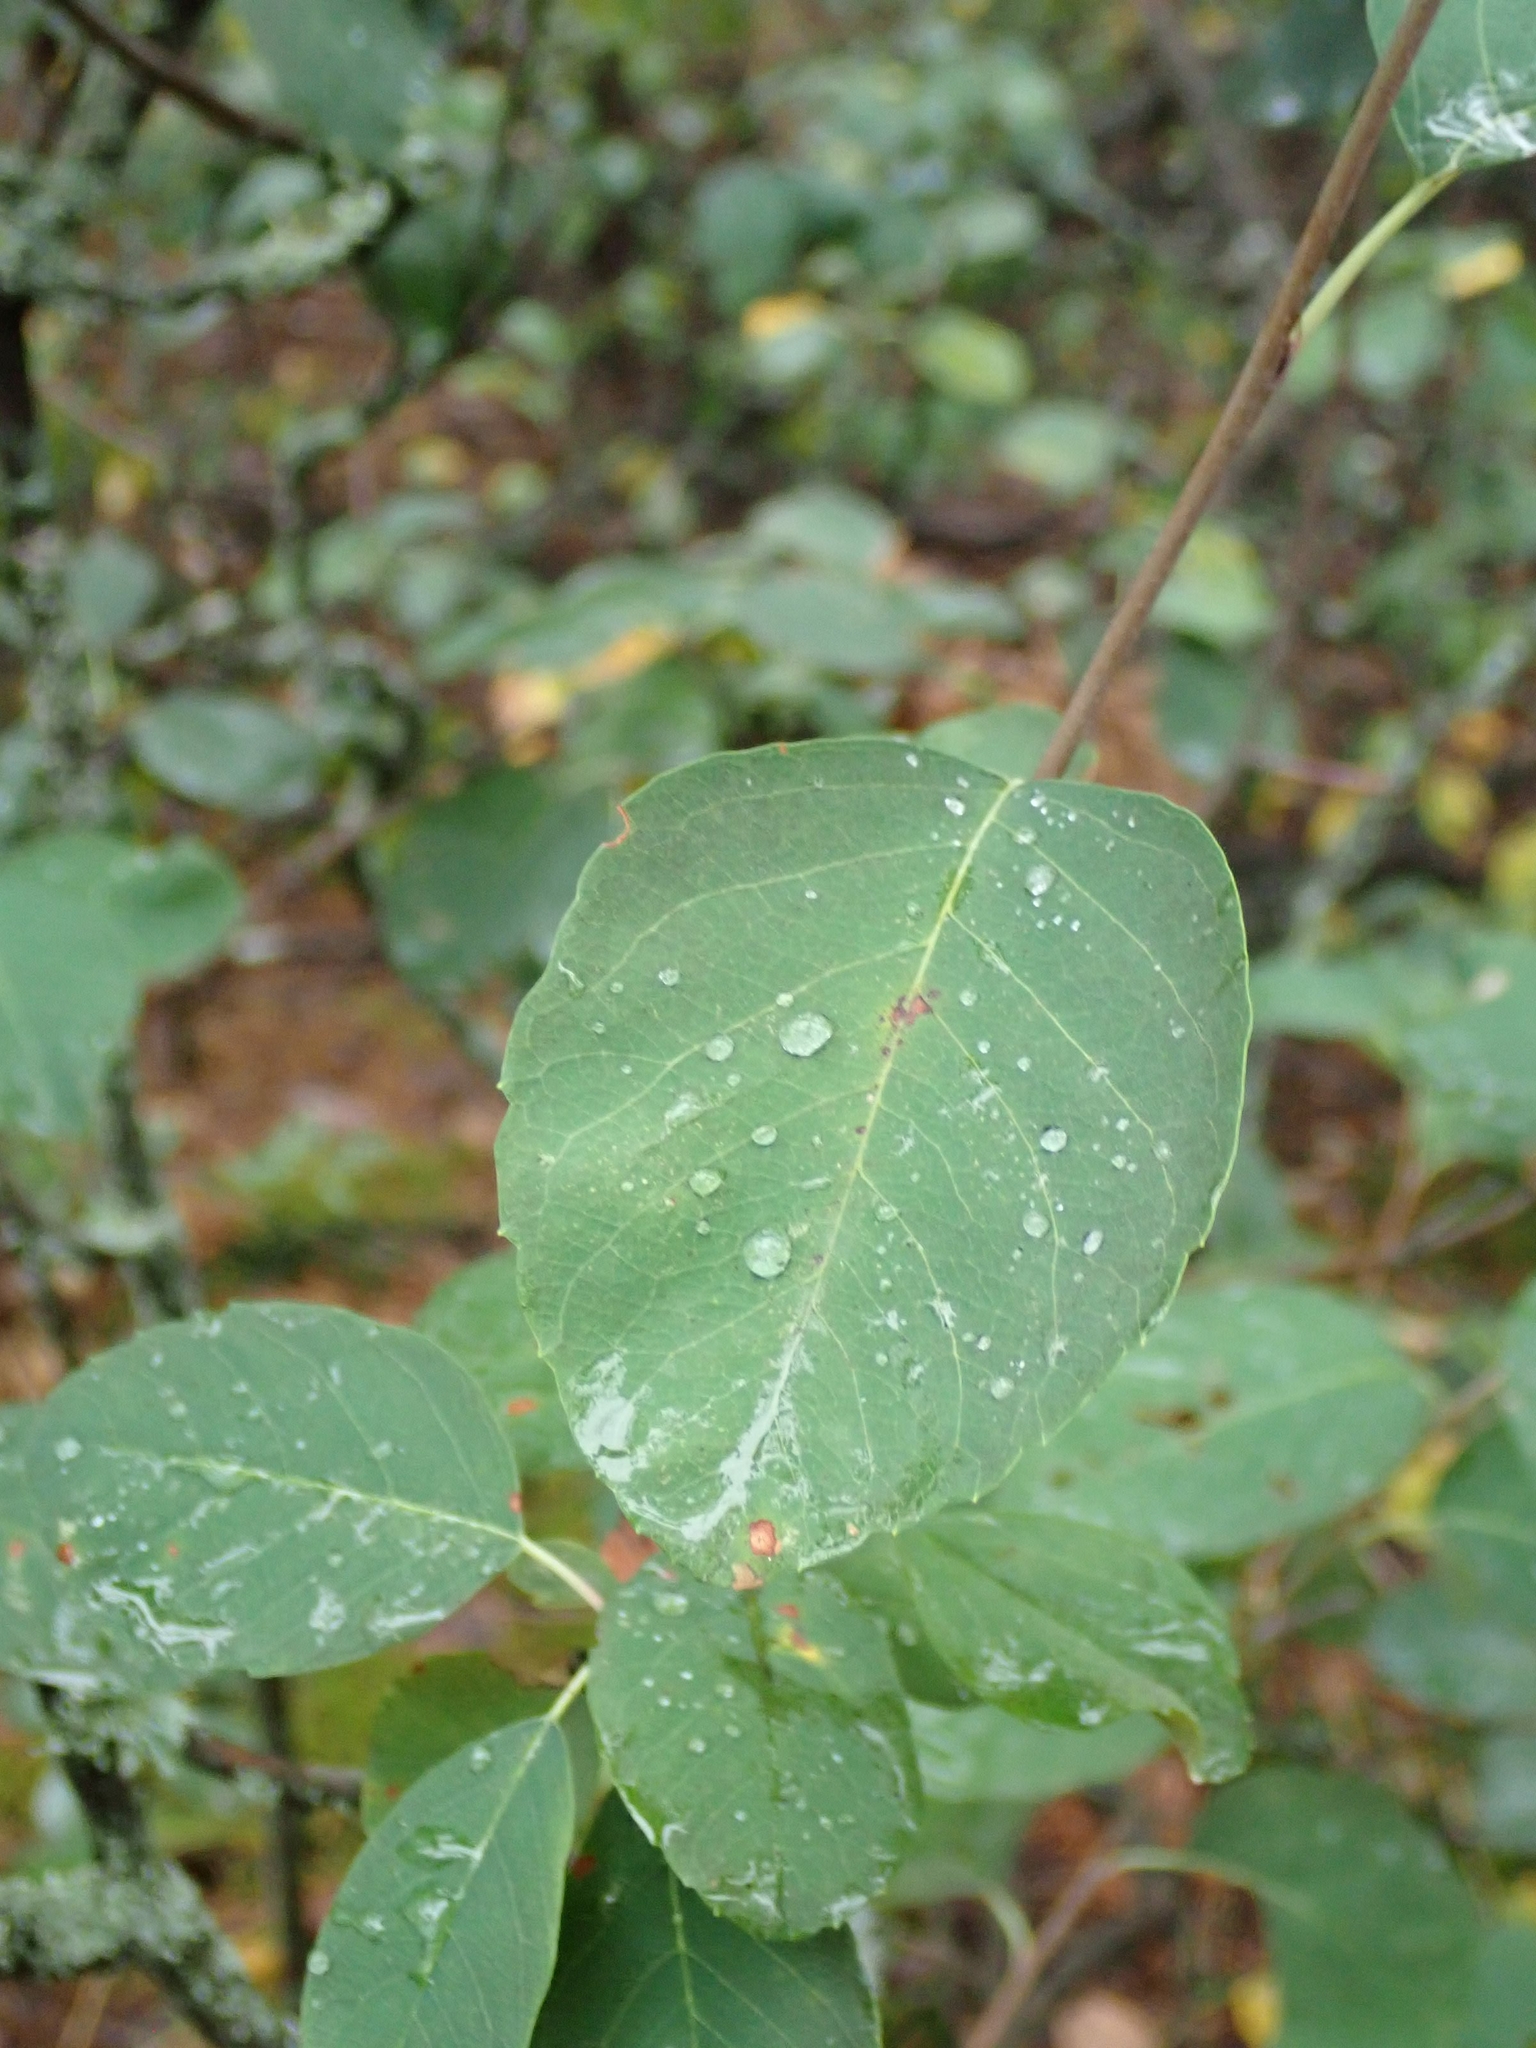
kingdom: Plantae
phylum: Tracheophyta
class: Magnoliopsida
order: Rosales
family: Rosaceae
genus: Amelanchier
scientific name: Amelanchier alnifolia
